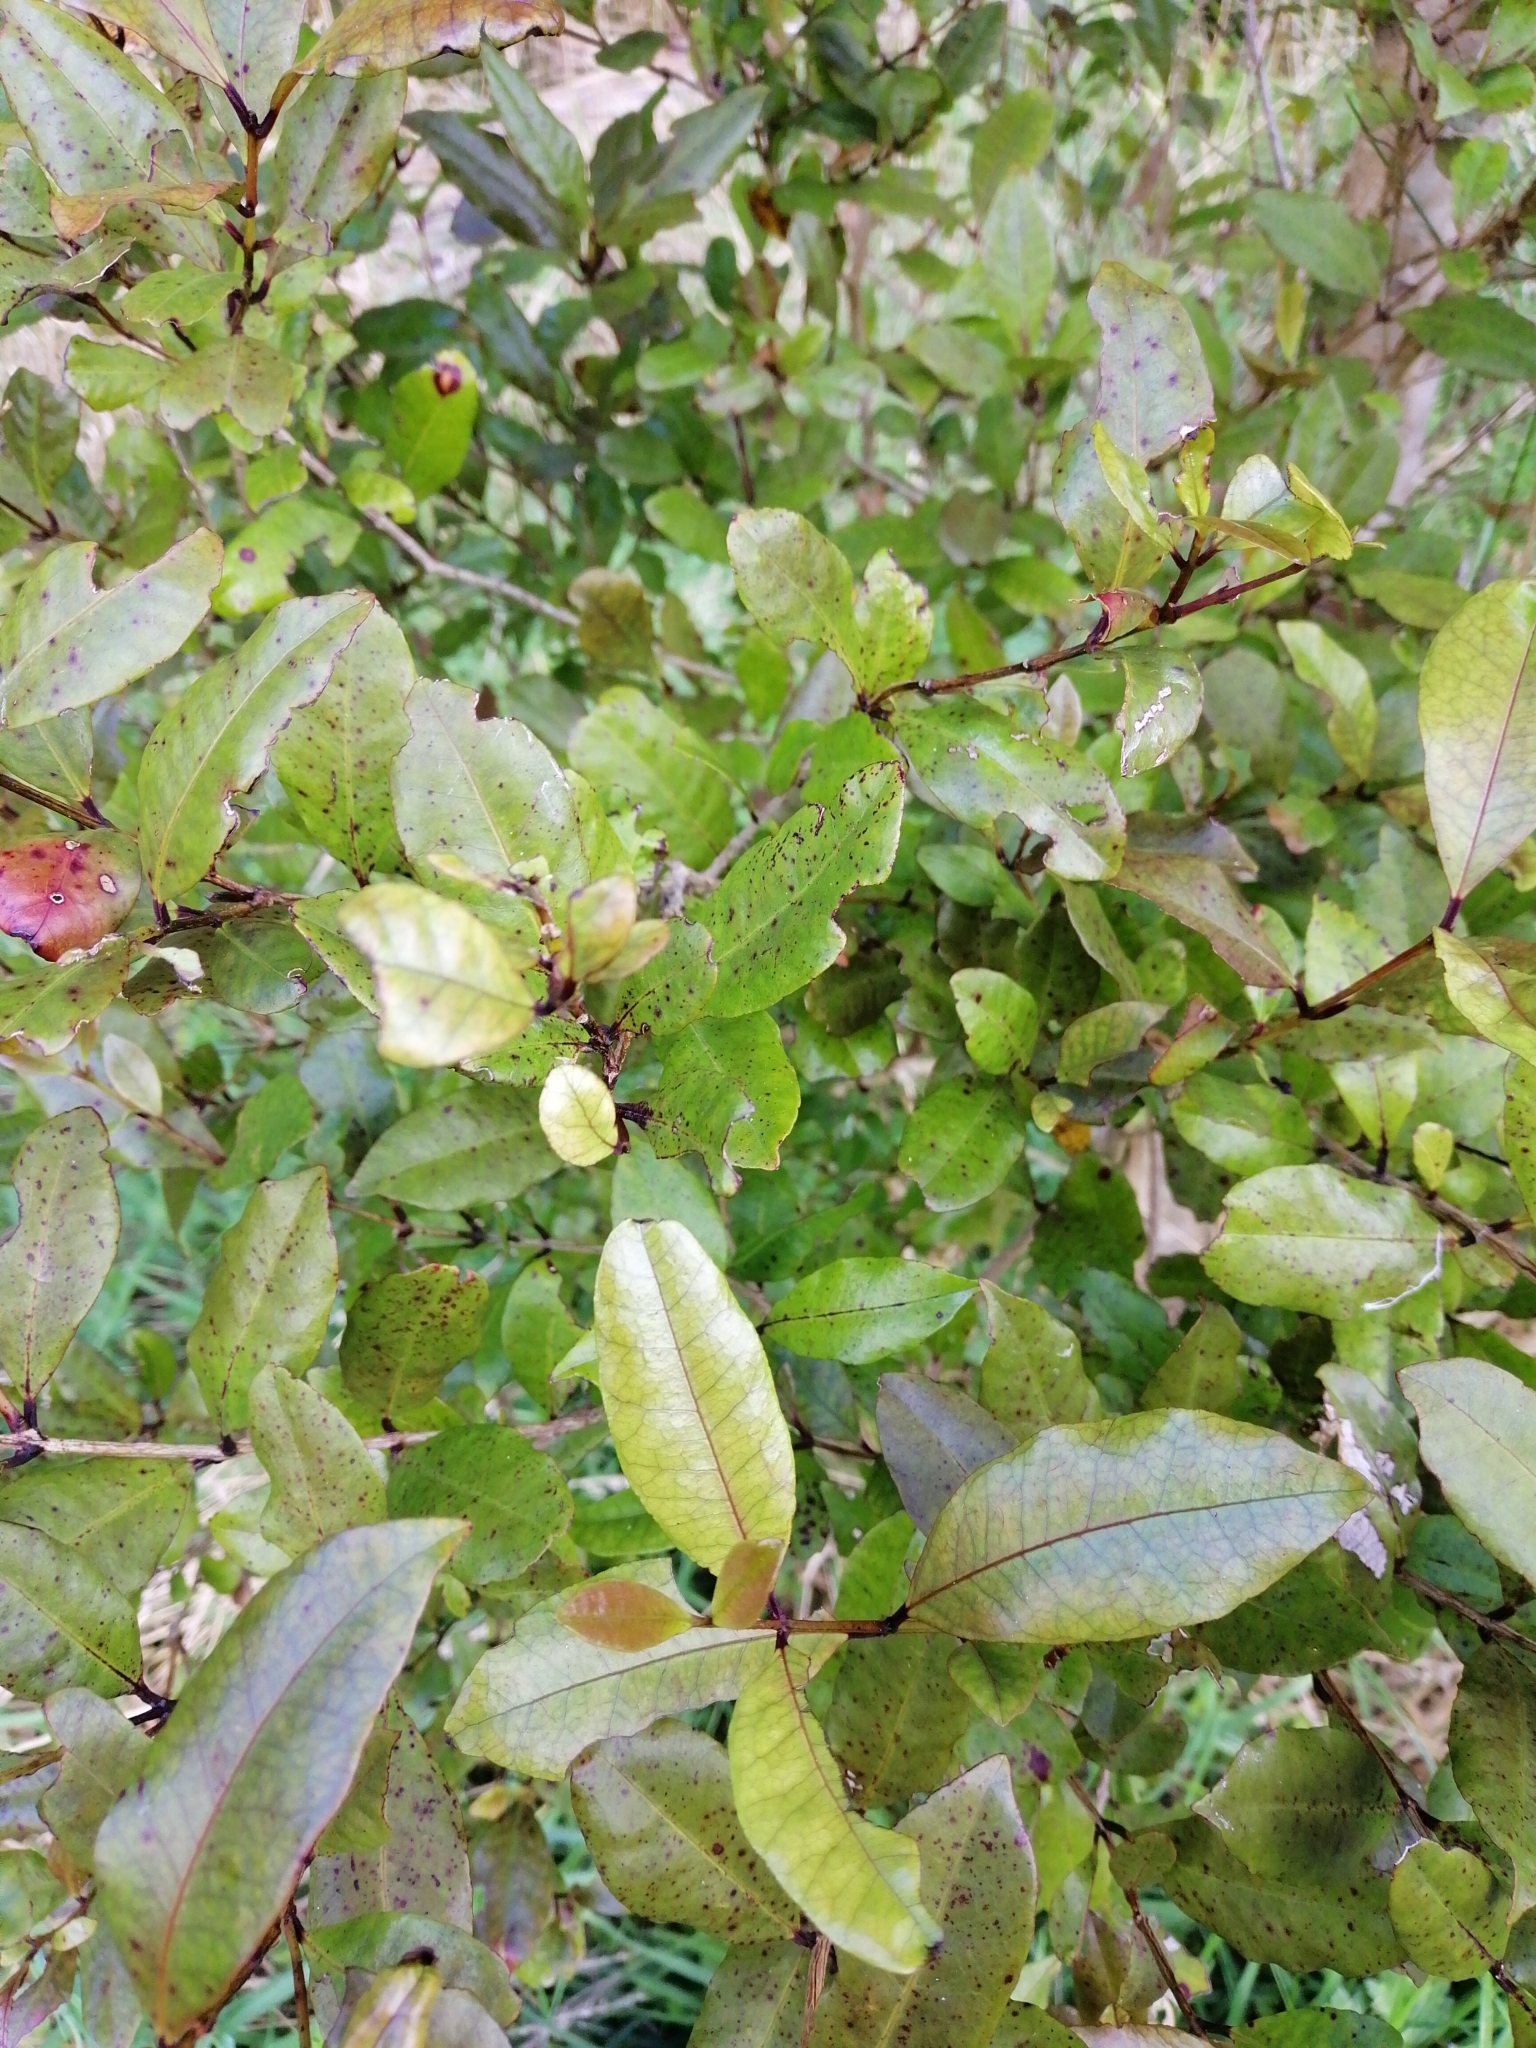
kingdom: Plantae
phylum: Tracheophyta
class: Magnoliopsida
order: Myrtales
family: Myrtaceae
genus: Syzygium
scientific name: Syzygium maire
